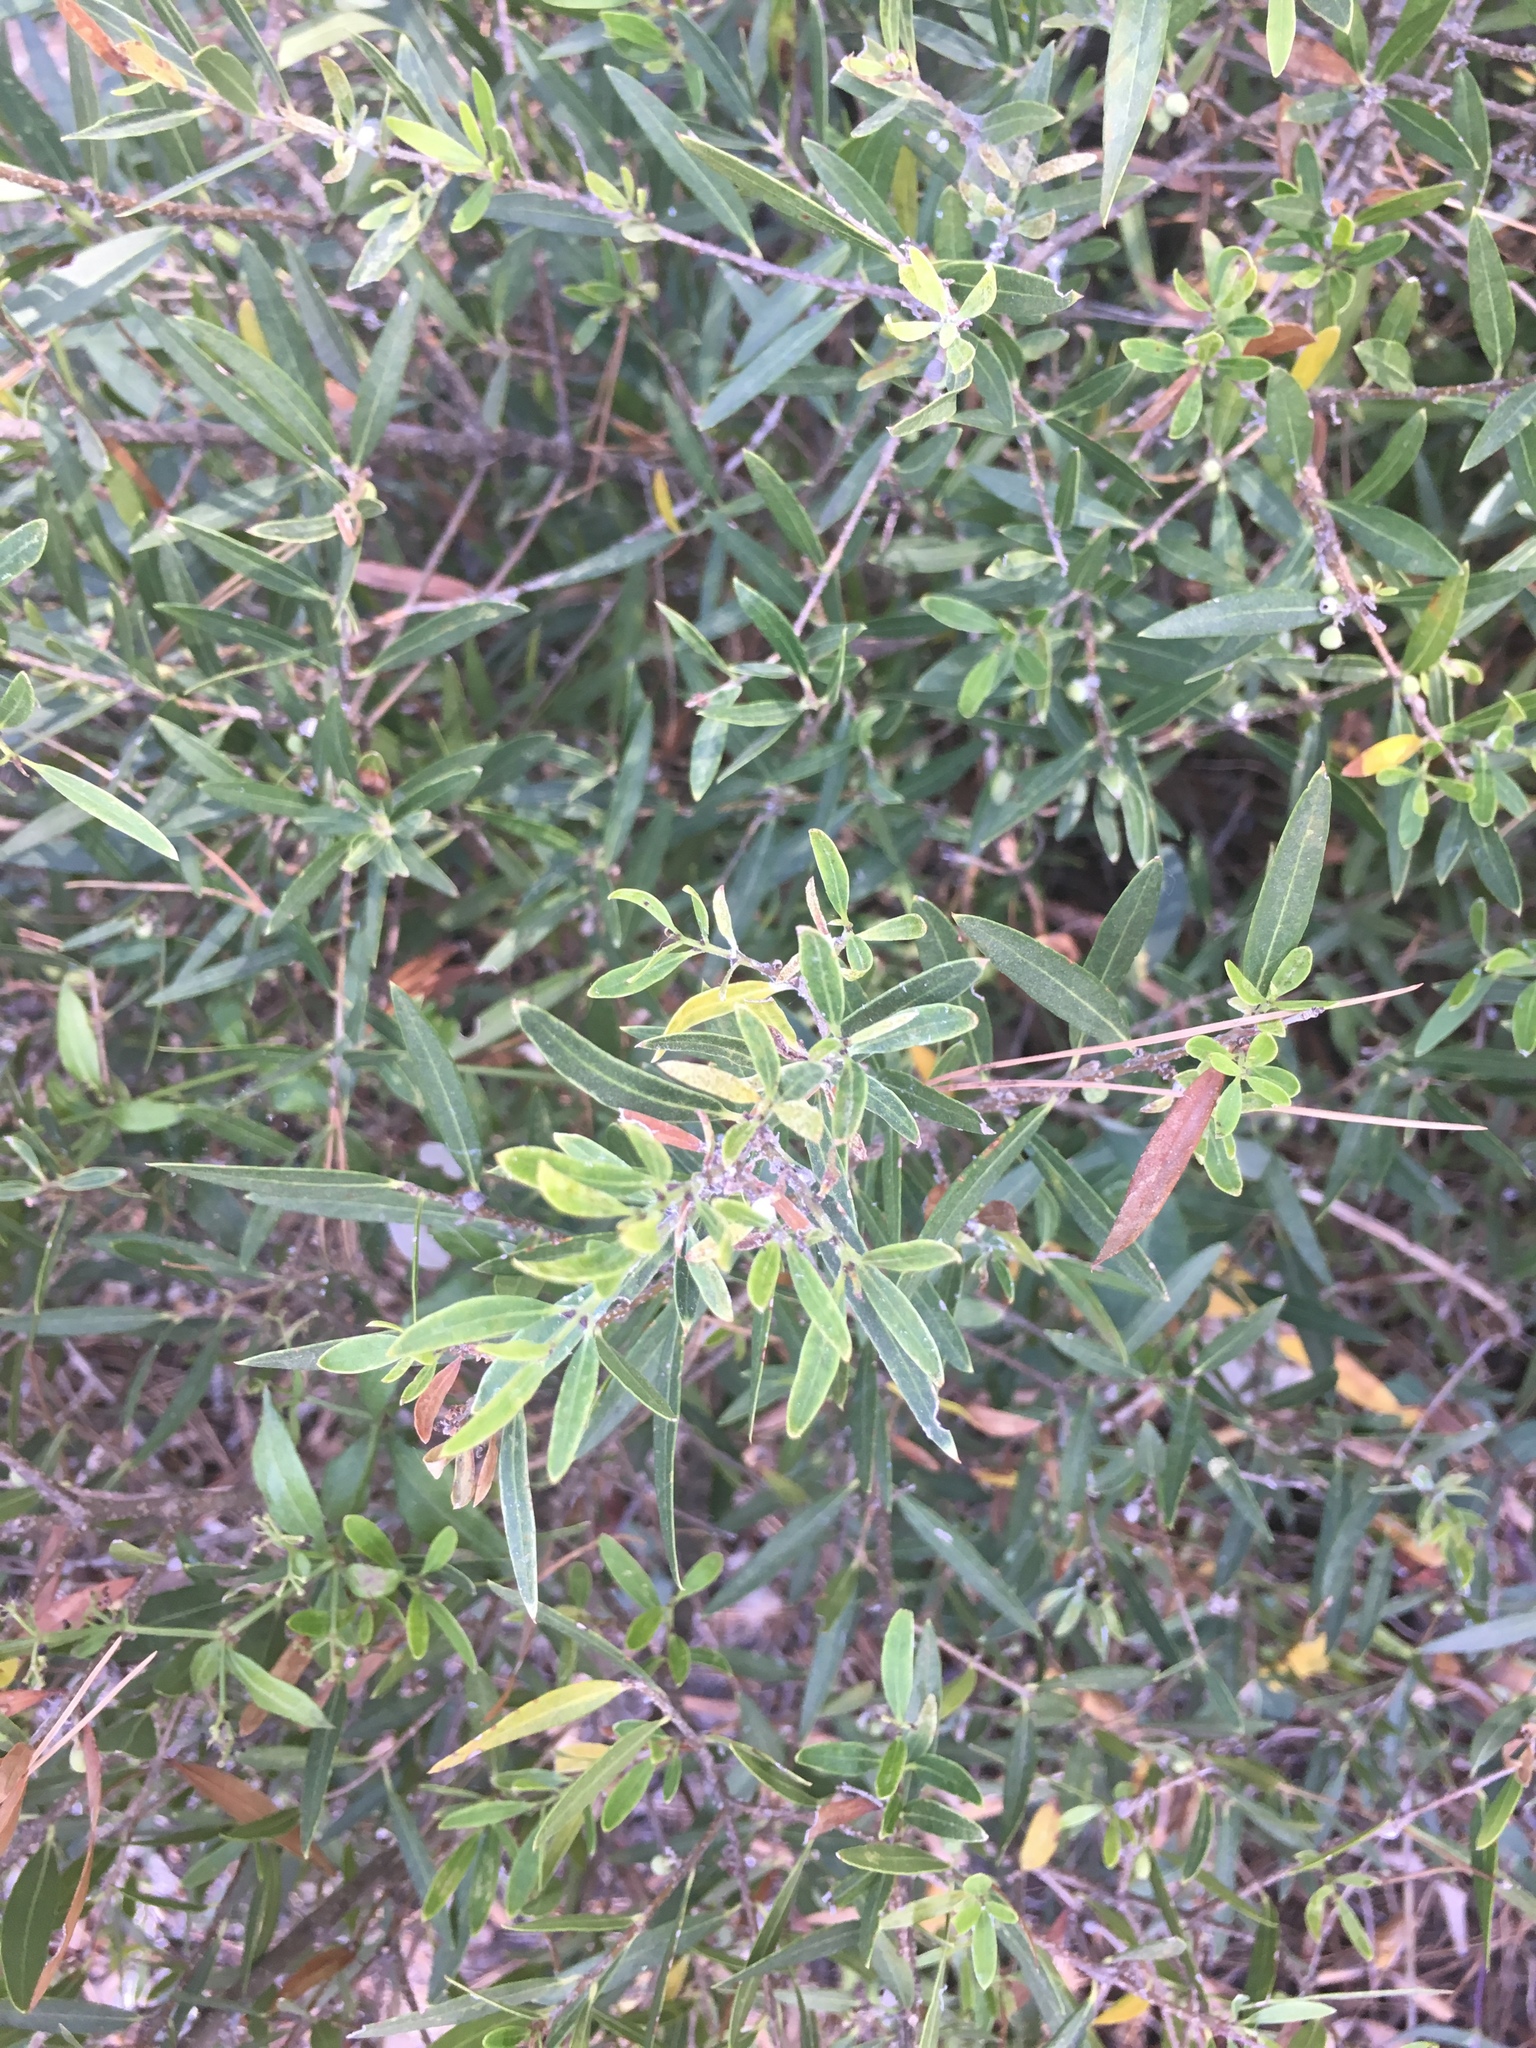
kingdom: Plantae
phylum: Tracheophyta
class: Magnoliopsida
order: Lamiales
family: Oleaceae
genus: Phillyrea
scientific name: Phillyrea angustifolia
